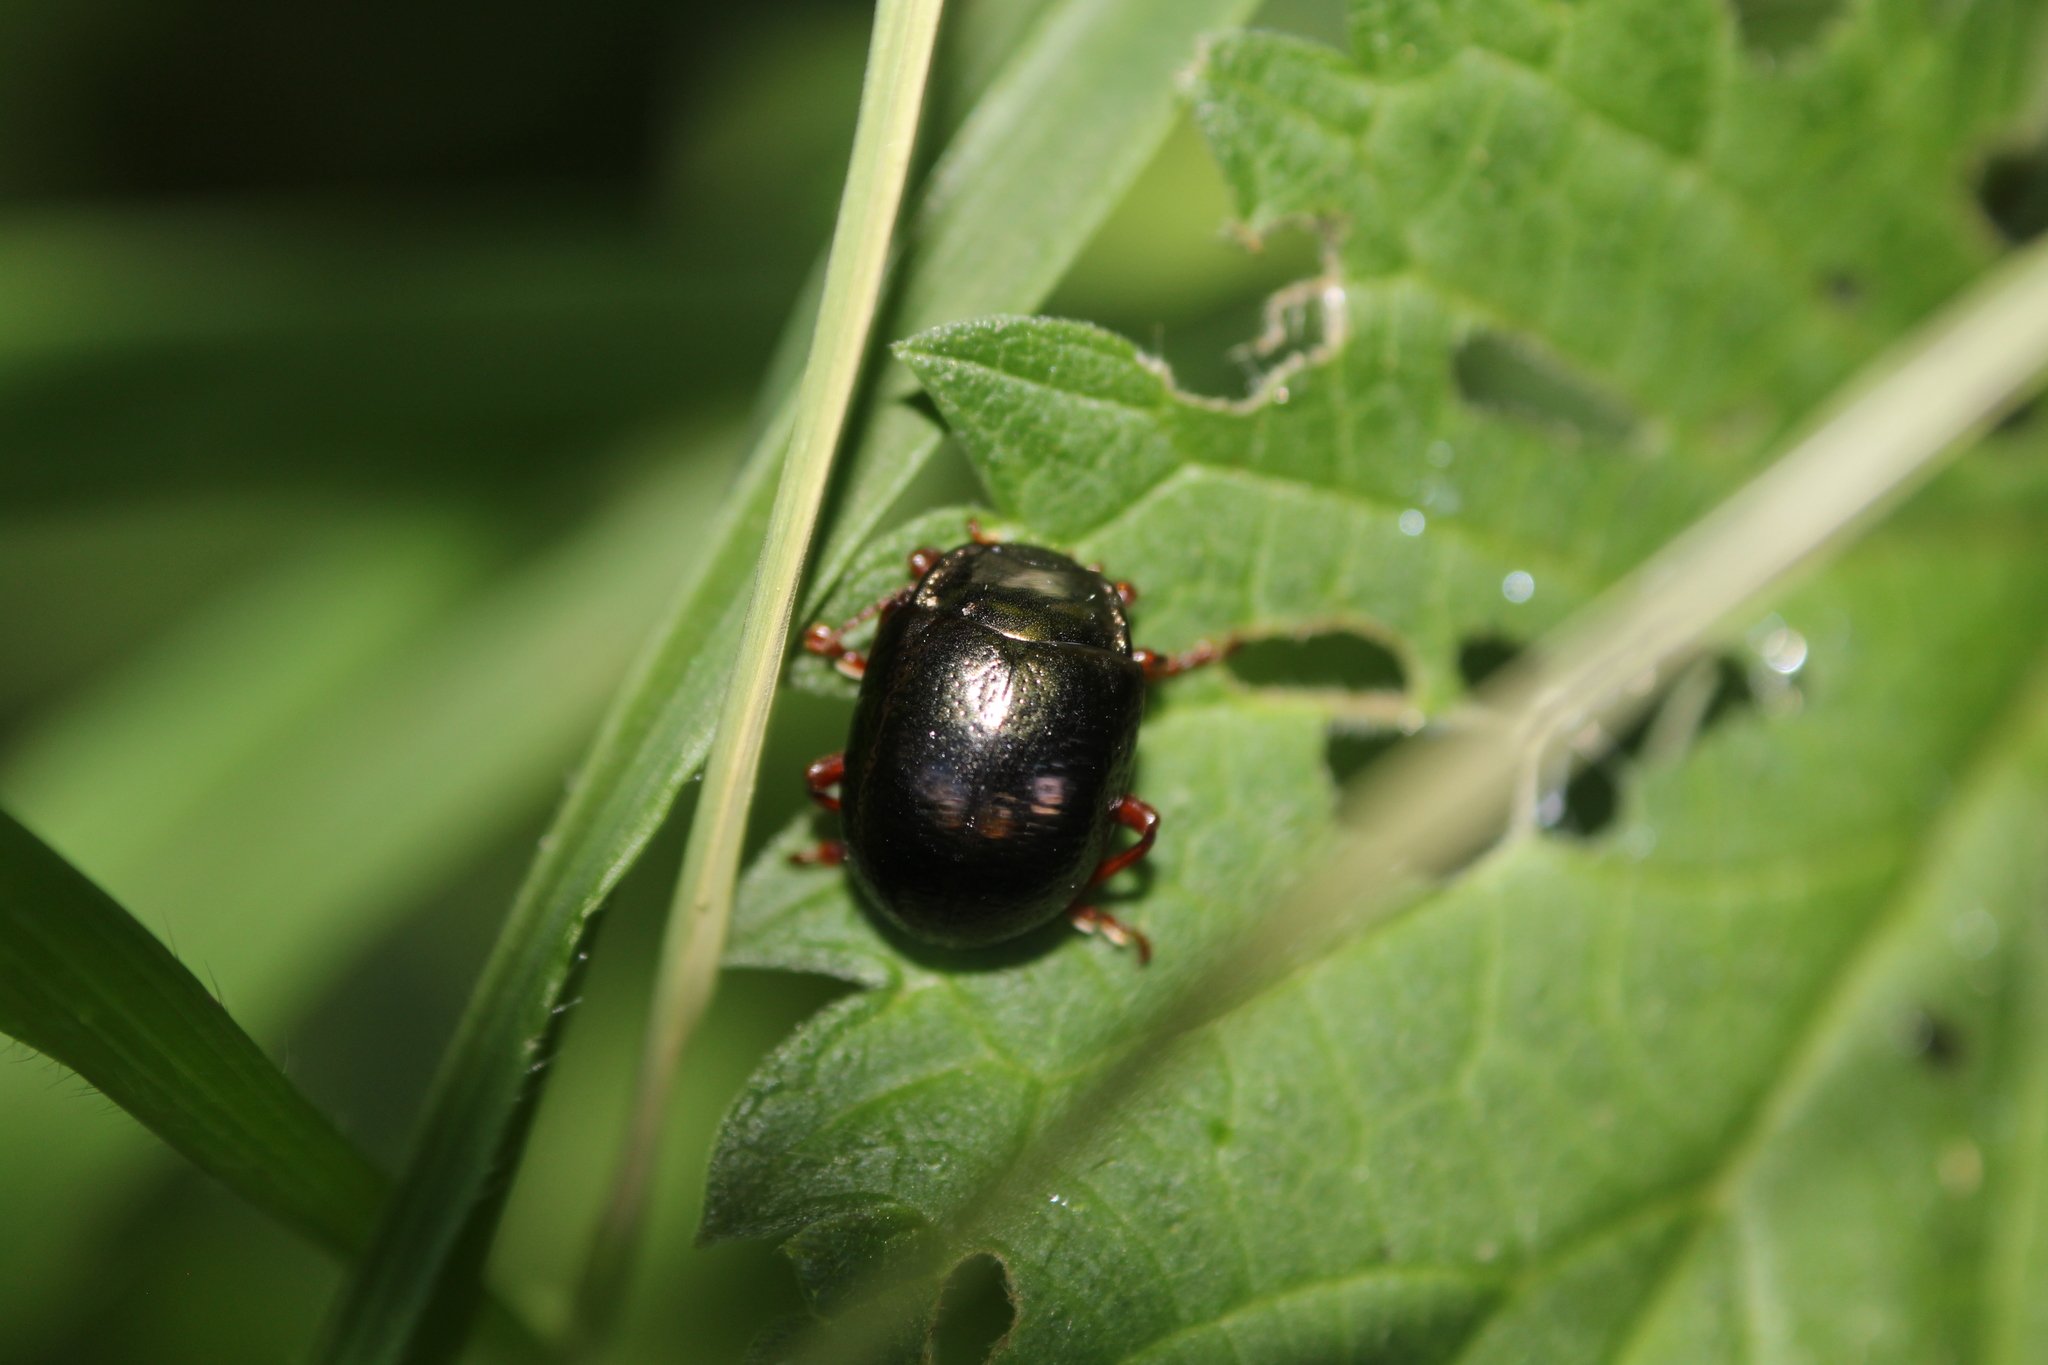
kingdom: Animalia
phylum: Arthropoda
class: Insecta
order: Coleoptera
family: Chrysomelidae
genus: Chrysolina
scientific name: Chrysolina bankii
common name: Leaf beetle
